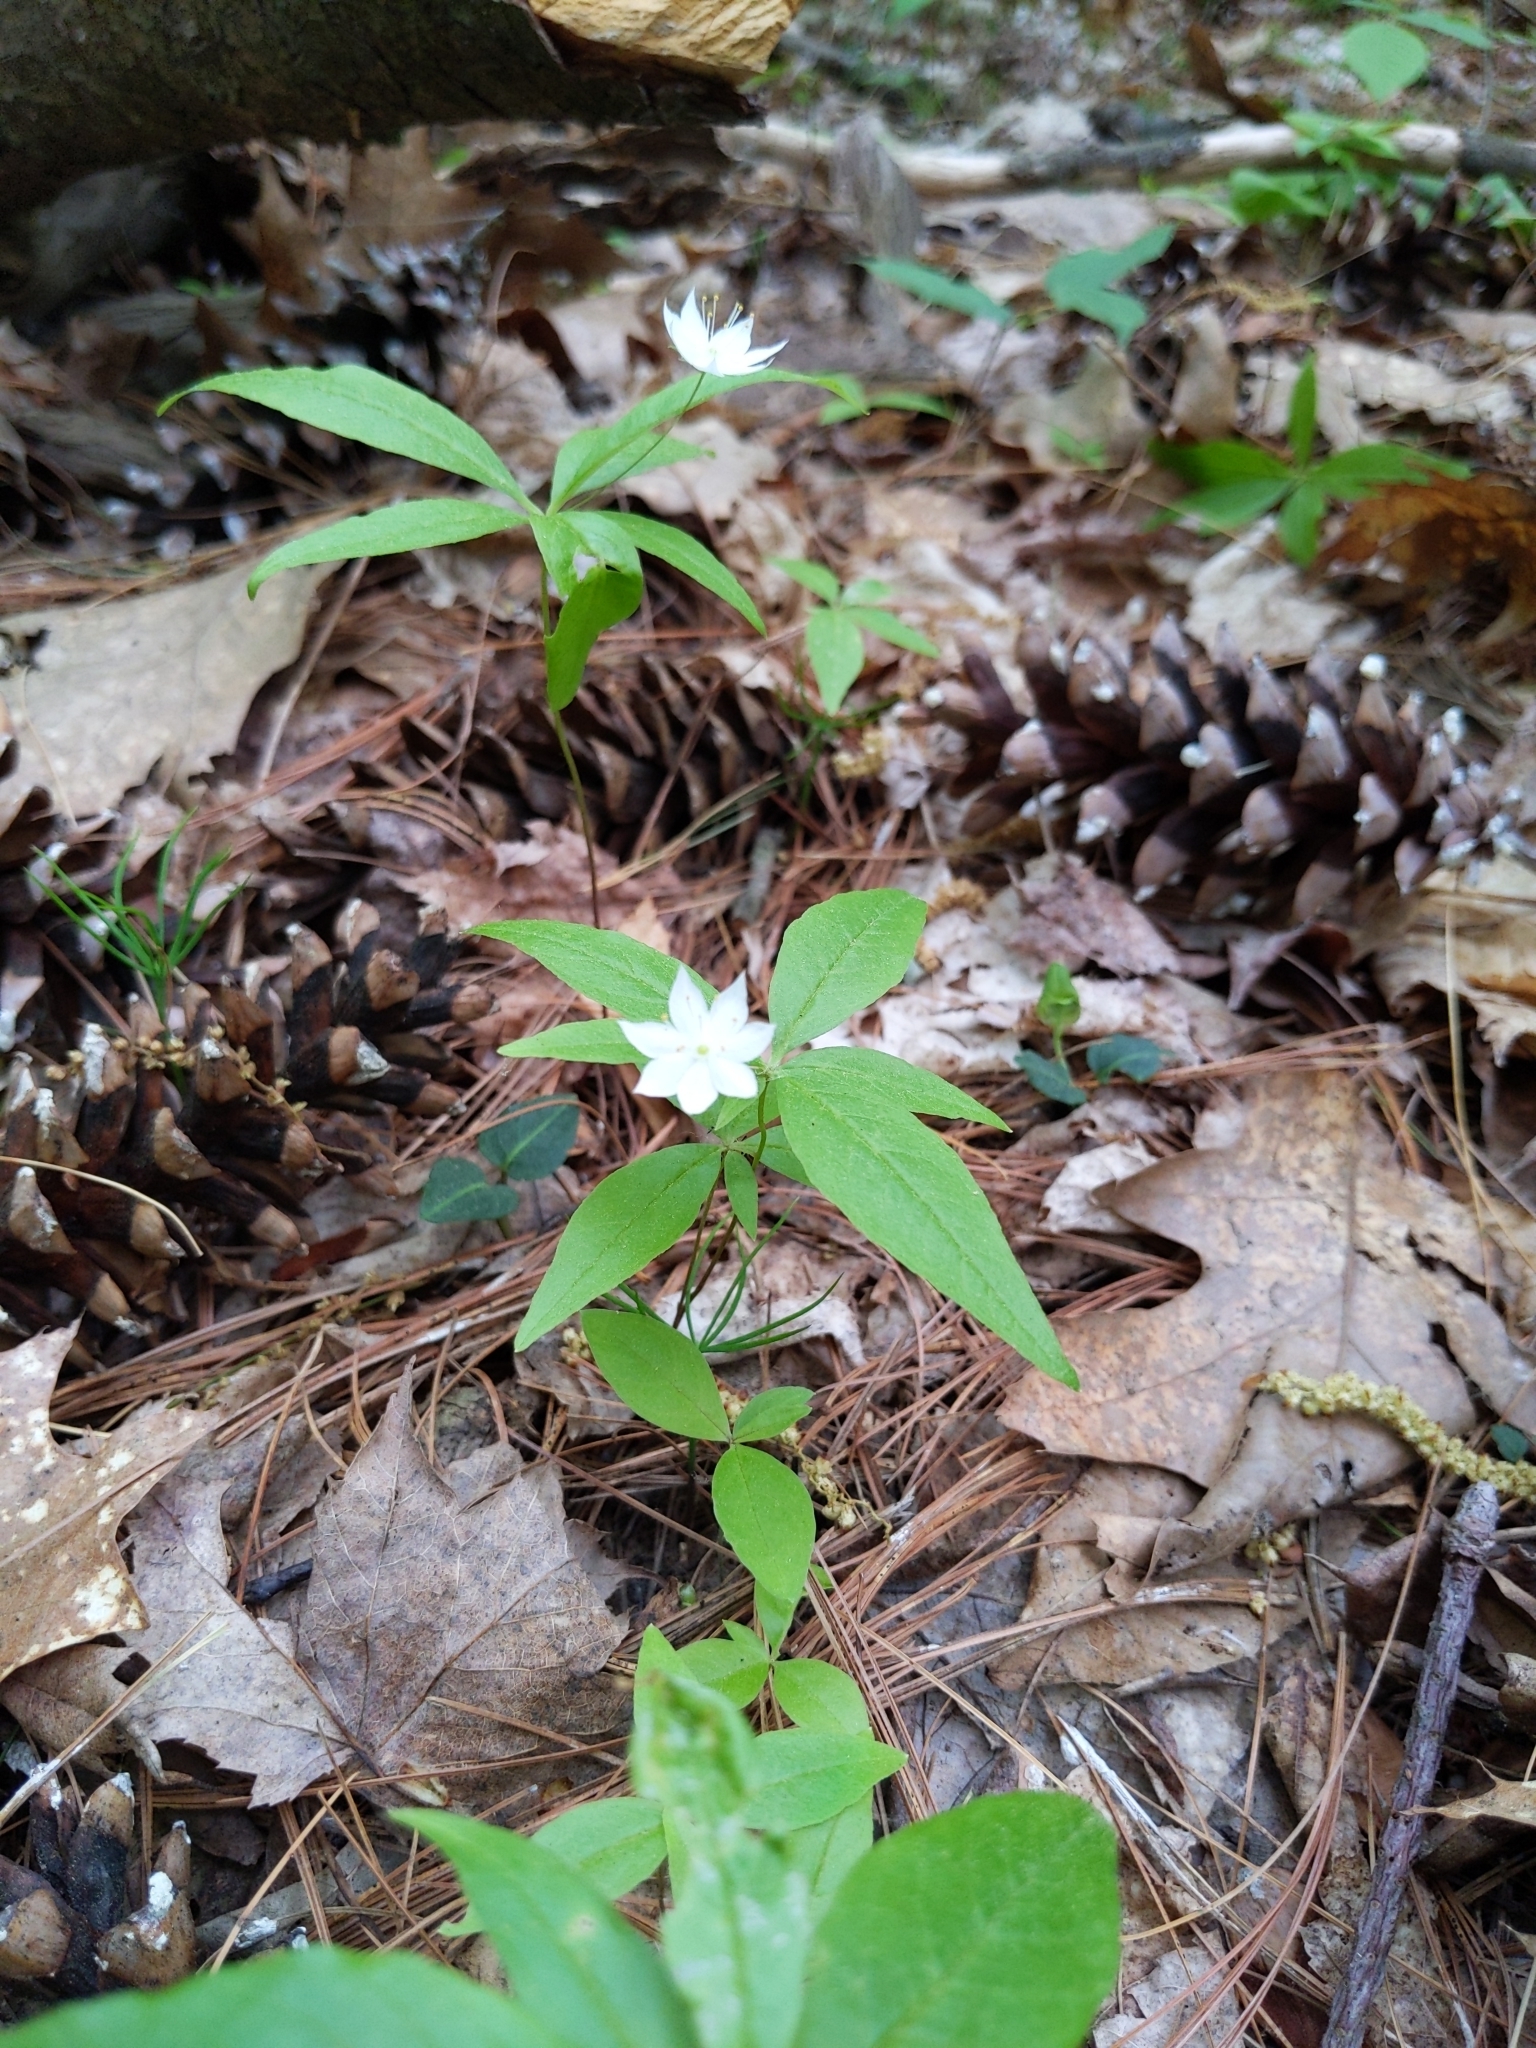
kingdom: Plantae
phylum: Tracheophyta
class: Magnoliopsida
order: Ericales
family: Primulaceae
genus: Lysimachia
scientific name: Lysimachia borealis
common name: American starflower
